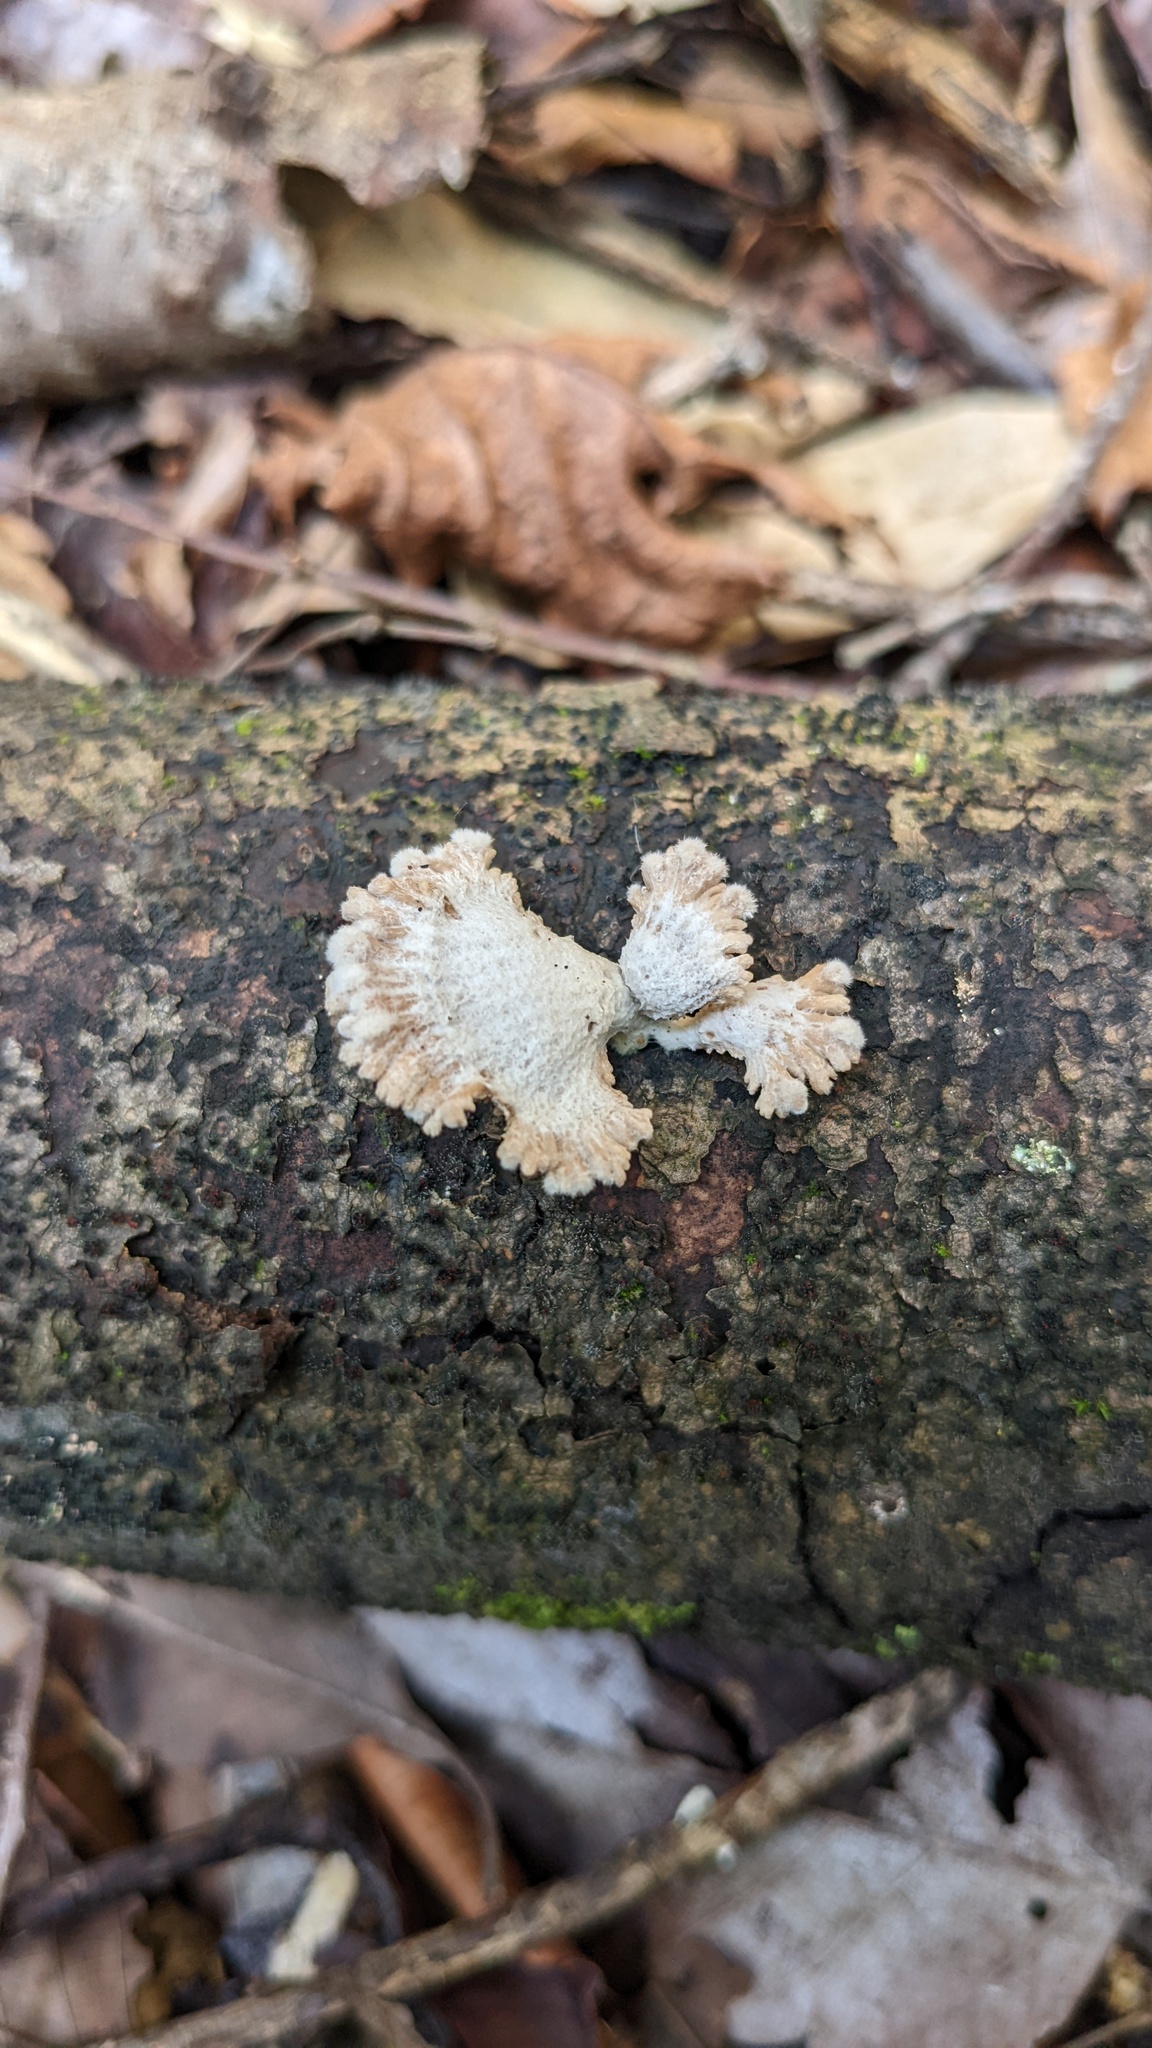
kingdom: Fungi
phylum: Basidiomycota
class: Agaricomycetes
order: Agaricales
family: Schizophyllaceae
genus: Schizophyllum
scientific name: Schizophyllum commune
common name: Common porecrust
